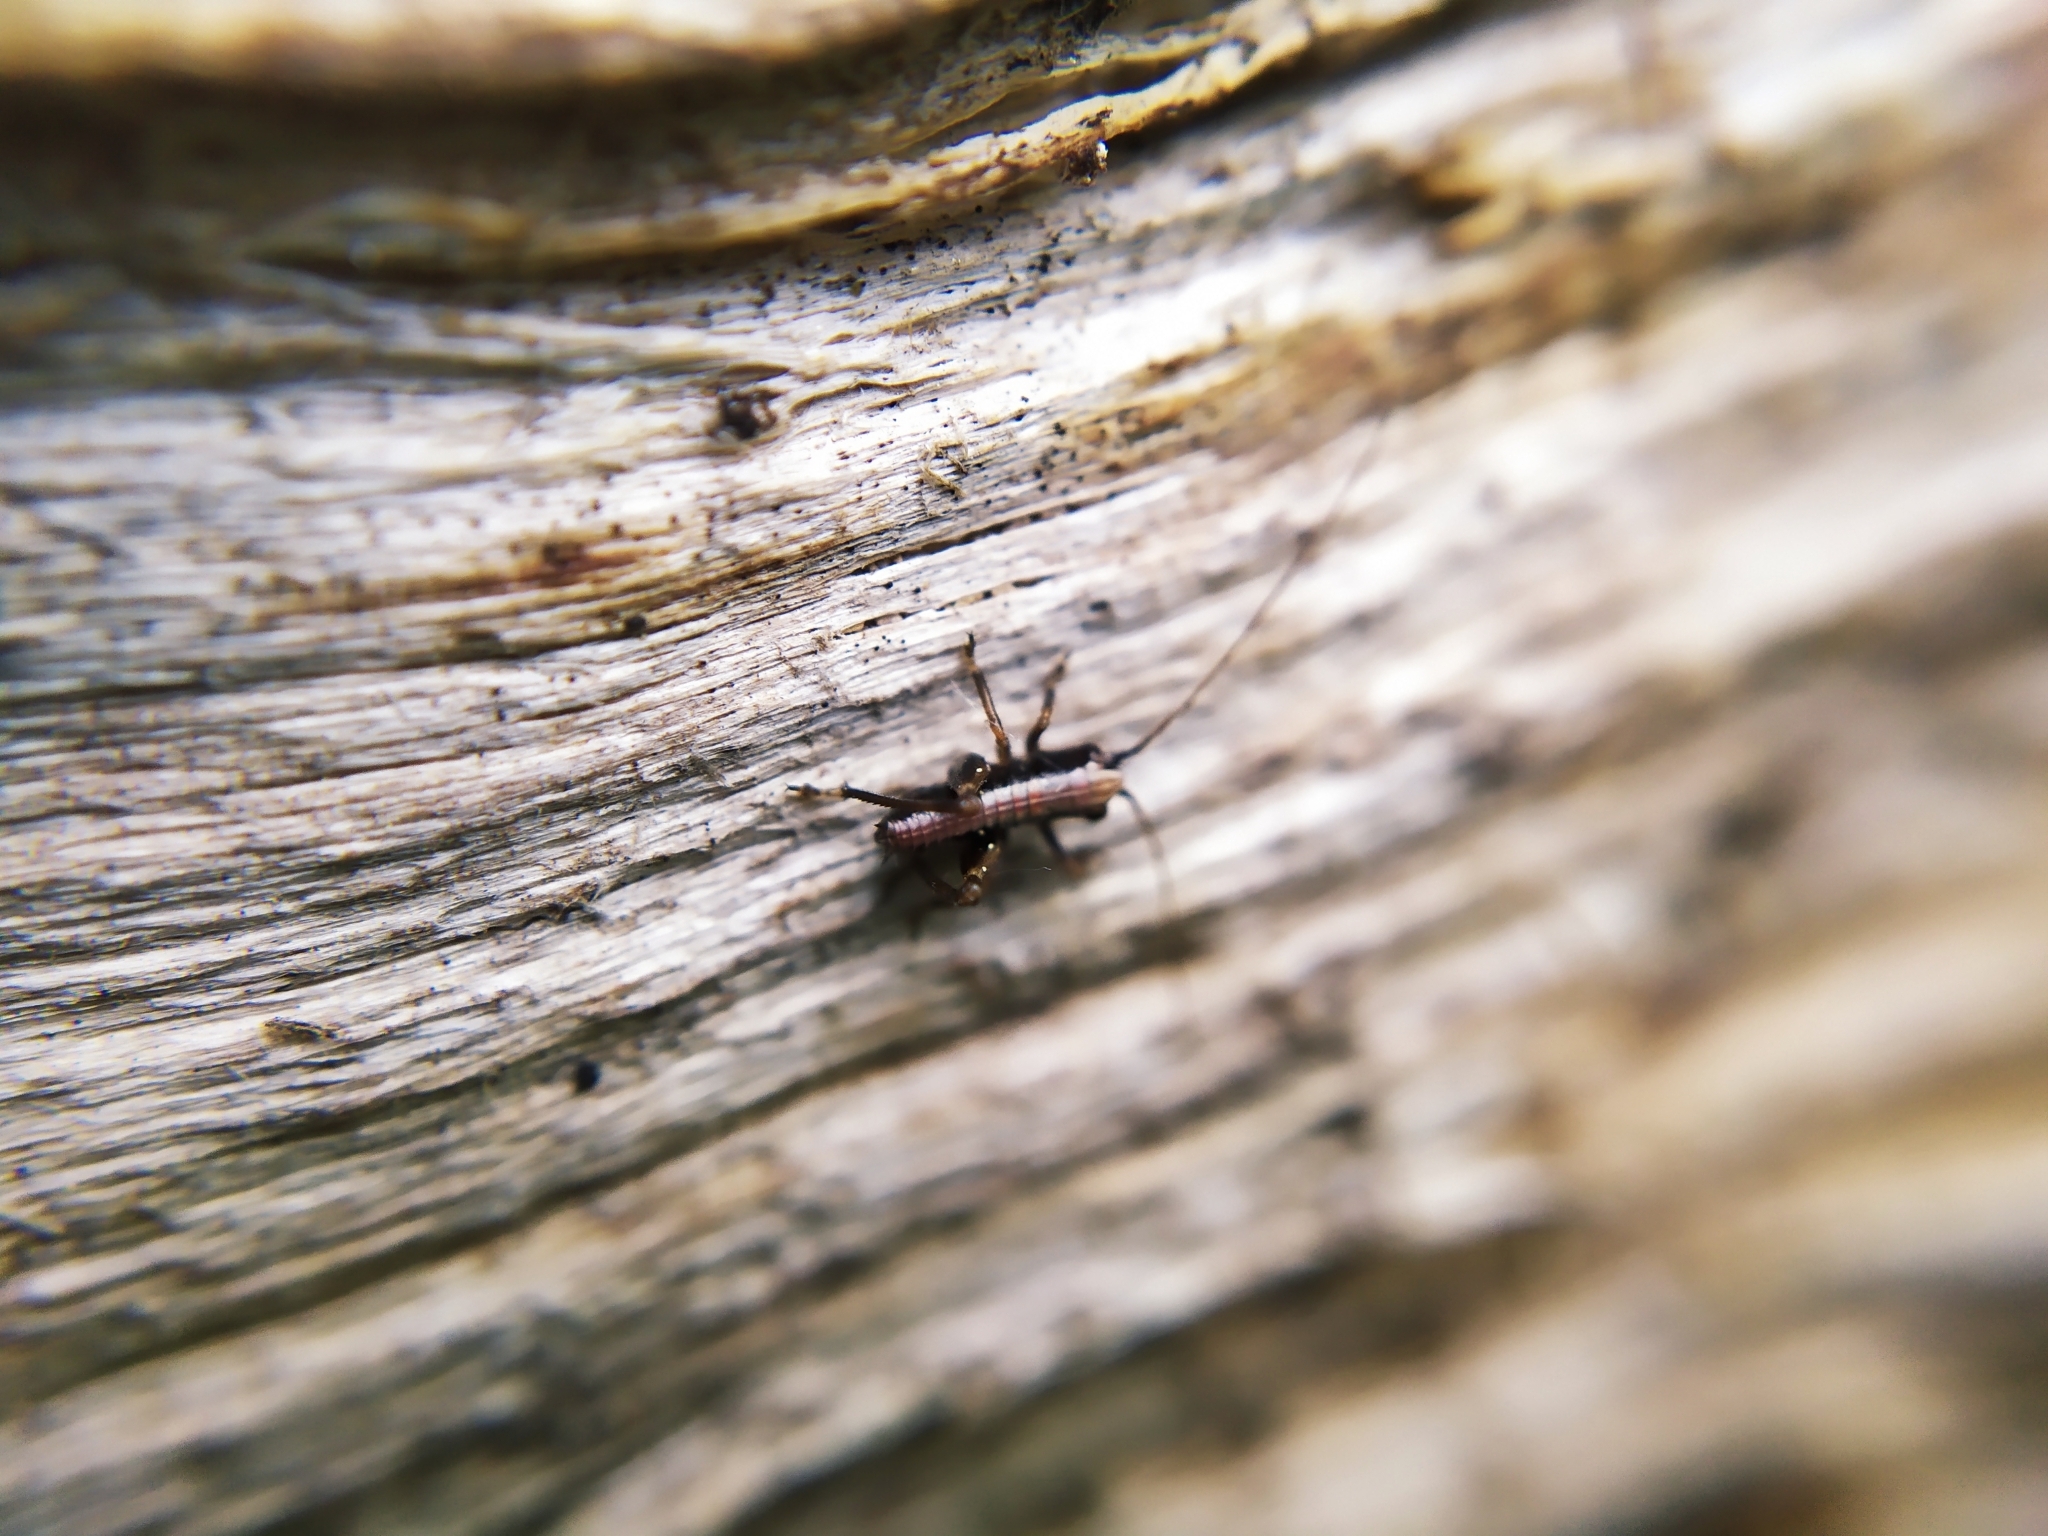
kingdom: Animalia
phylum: Arthropoda
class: Insecta
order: Orthoptera
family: Tettigoniidae
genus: Pholidoptera
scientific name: Pholidoptera griseoaptera
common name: Dark bush-cricket
